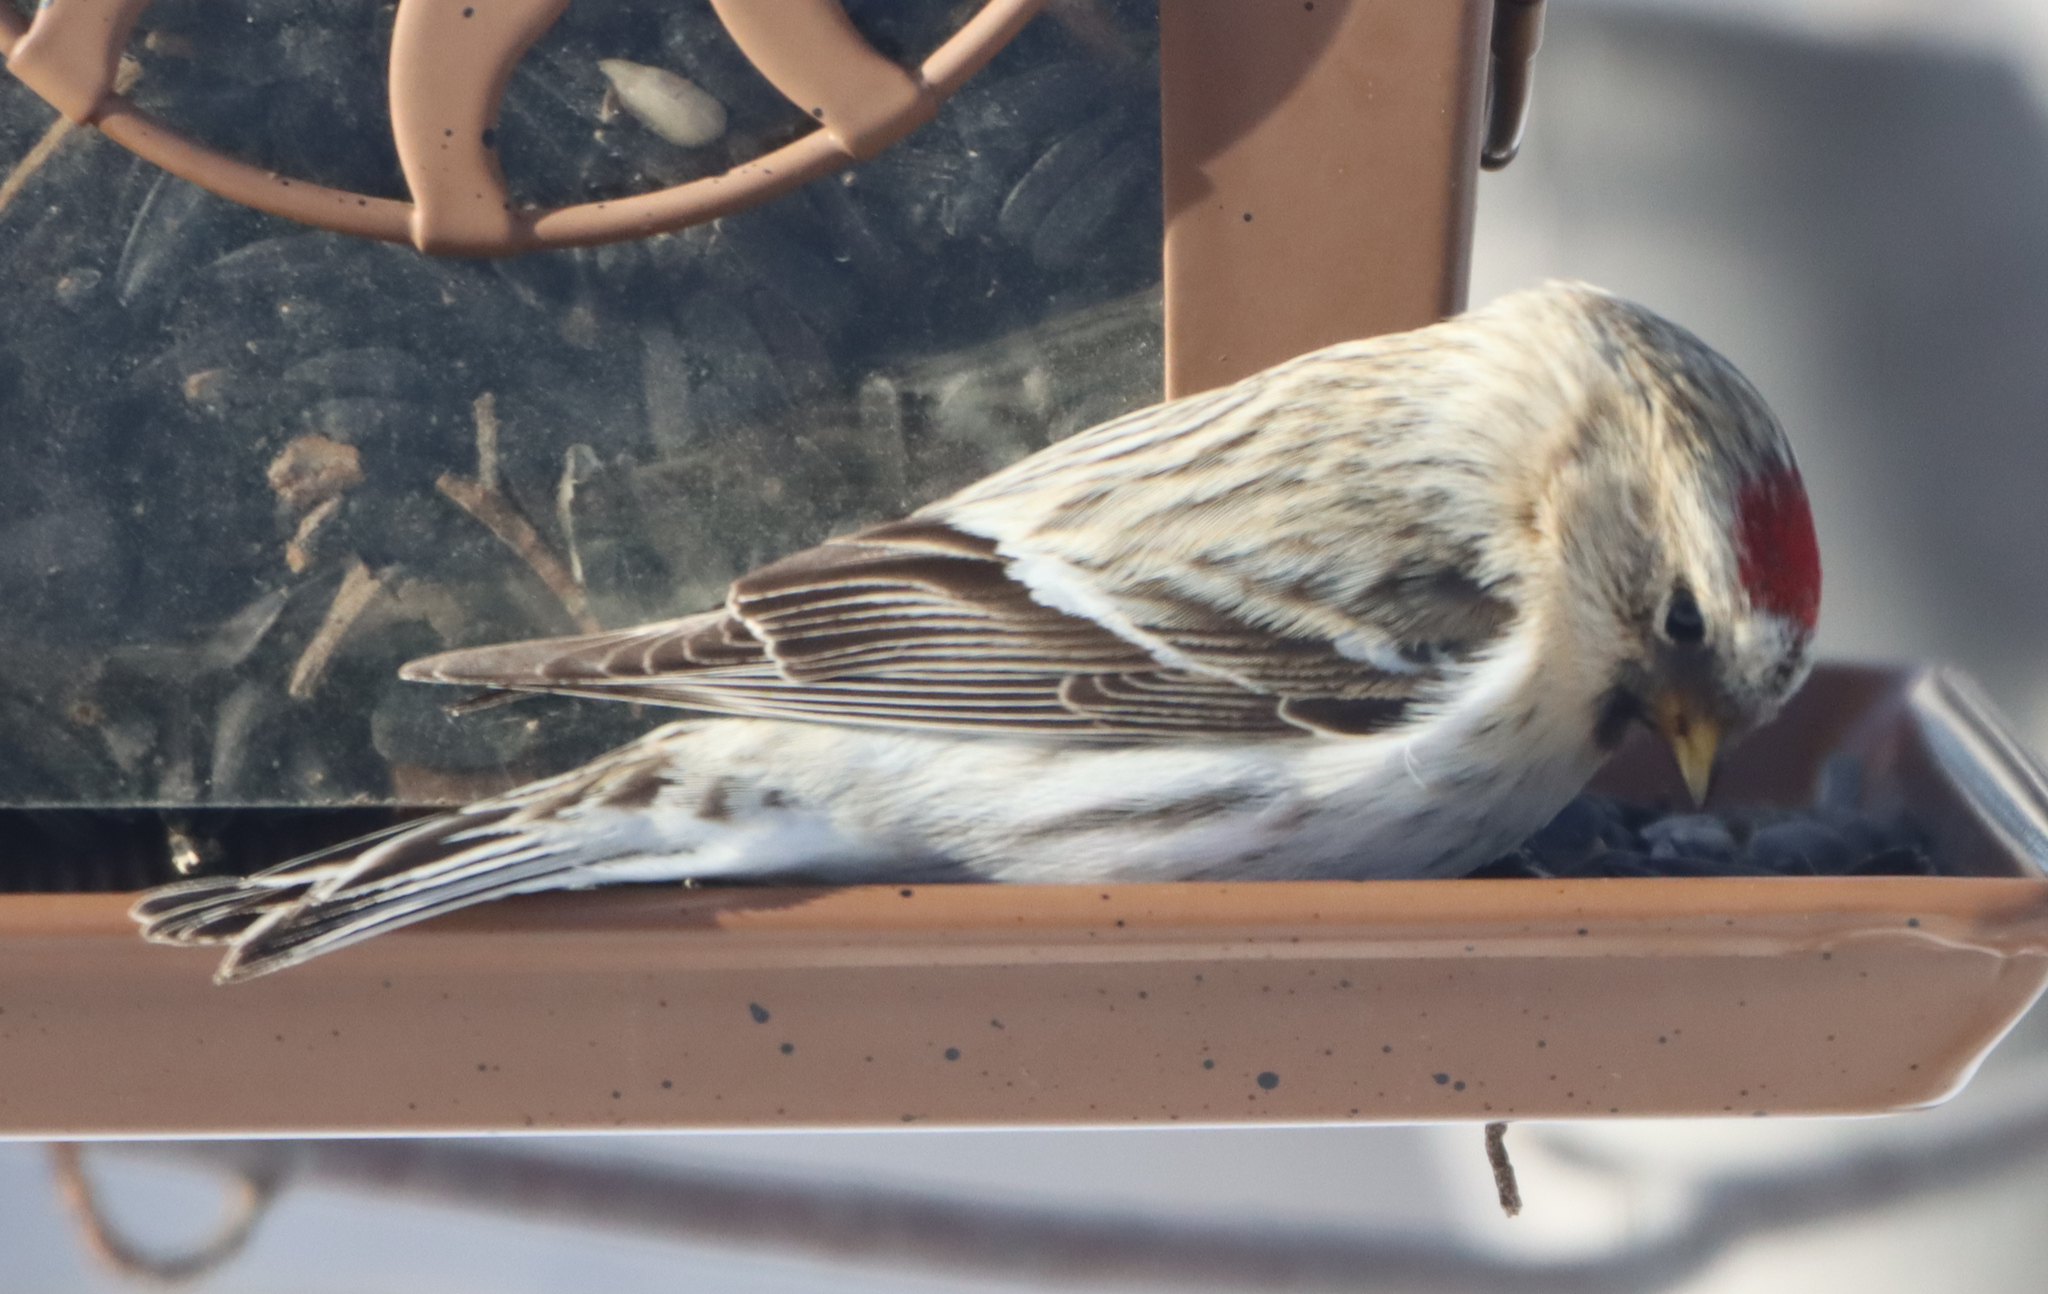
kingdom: Animalia
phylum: Chordata
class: Aves
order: Passeriformes
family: Fringillidae
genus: Acanthis
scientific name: Acanthis hornemanni
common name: Arctic redpoll
